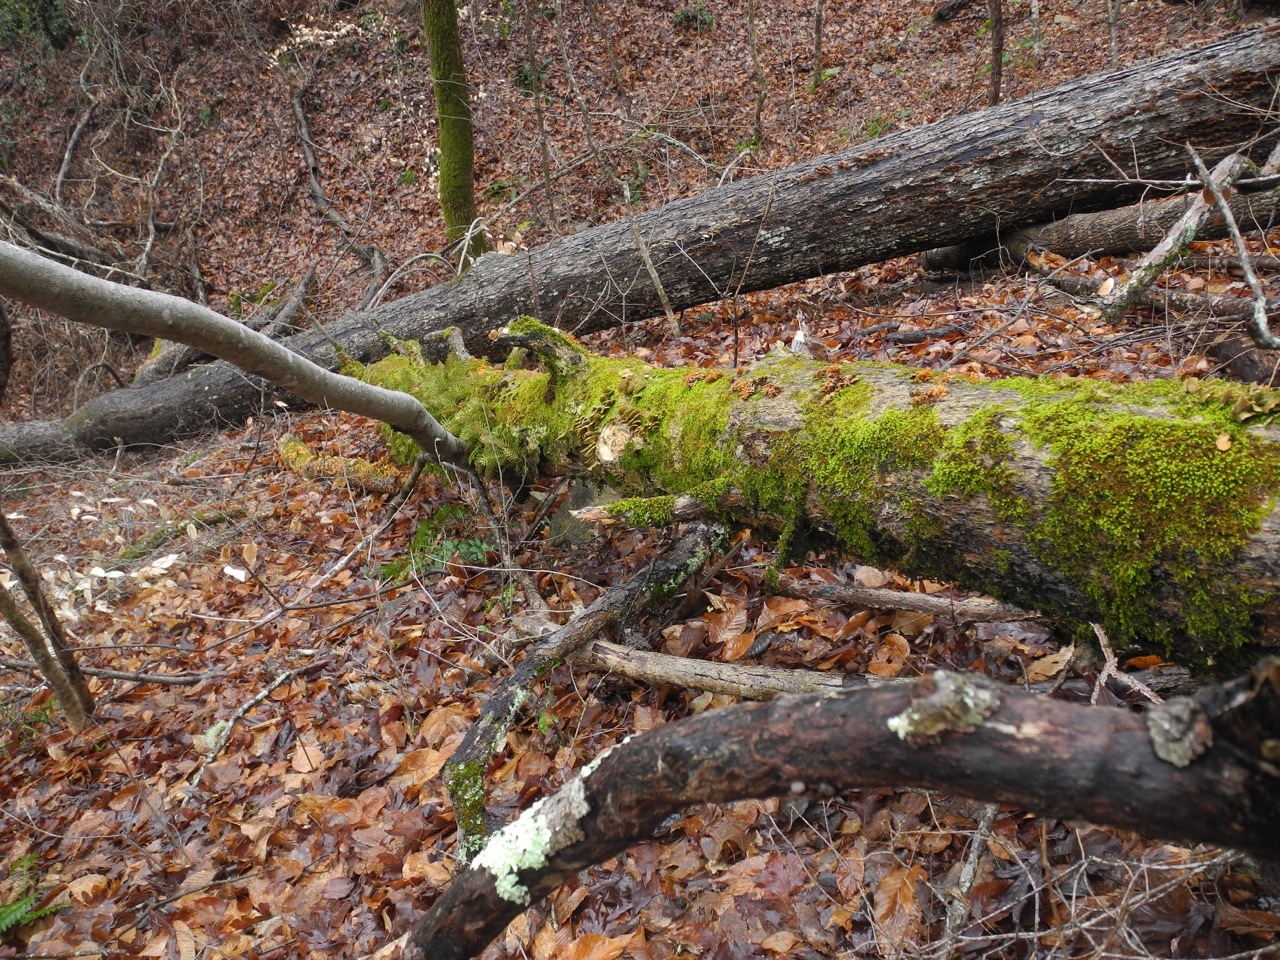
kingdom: Plantae
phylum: Tracheophyta
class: Polypodiopsida
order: Polypodiales
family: Polypodiaceae
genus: Pleopeltis
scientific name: Pleopeltis michauxiana
